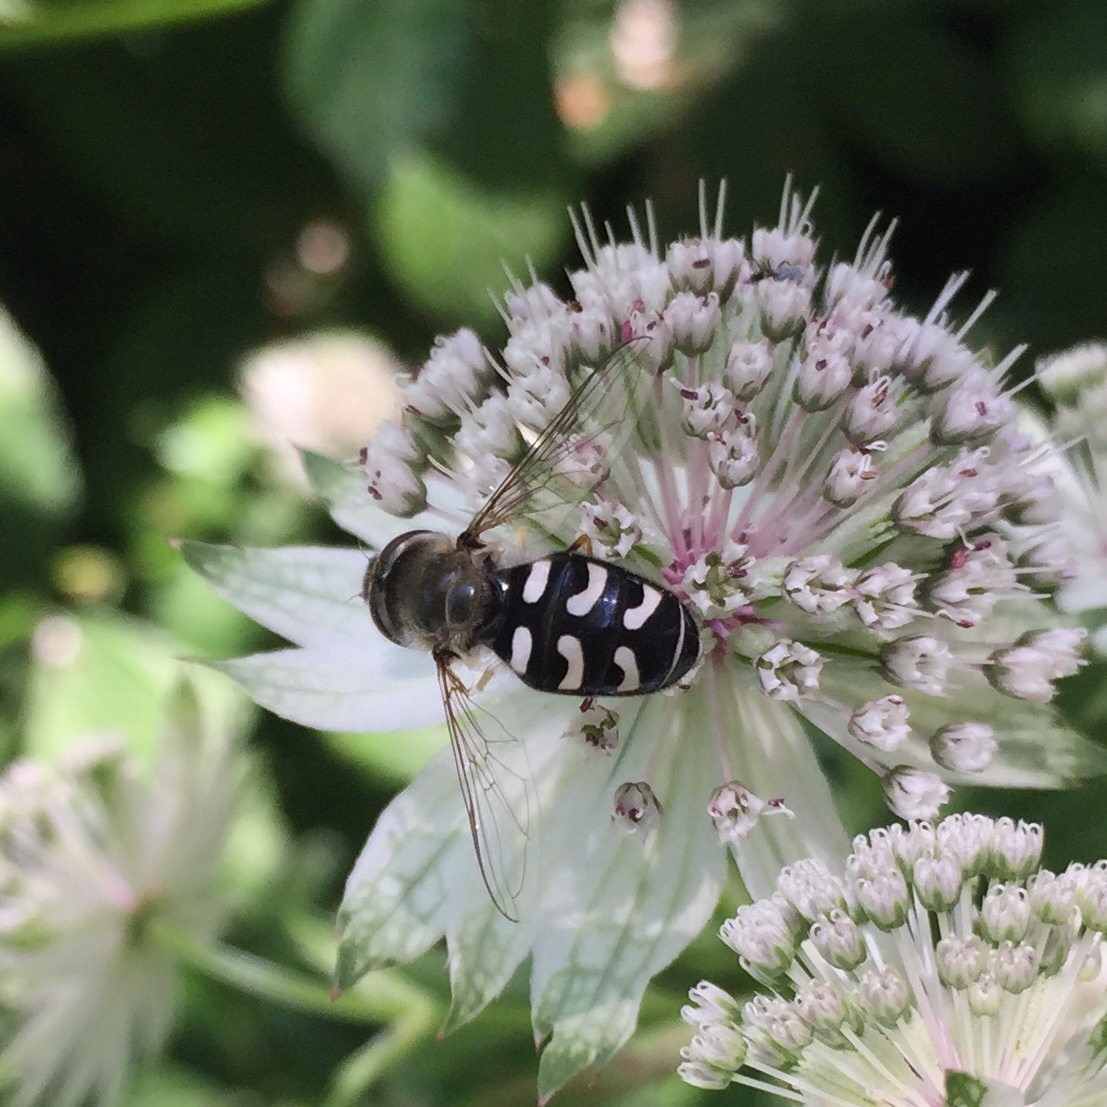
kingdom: Animalia
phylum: Arthropoda
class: Insecta
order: Diptera
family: Syrphidae
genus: Scaeva
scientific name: Scaeva pyrastri
